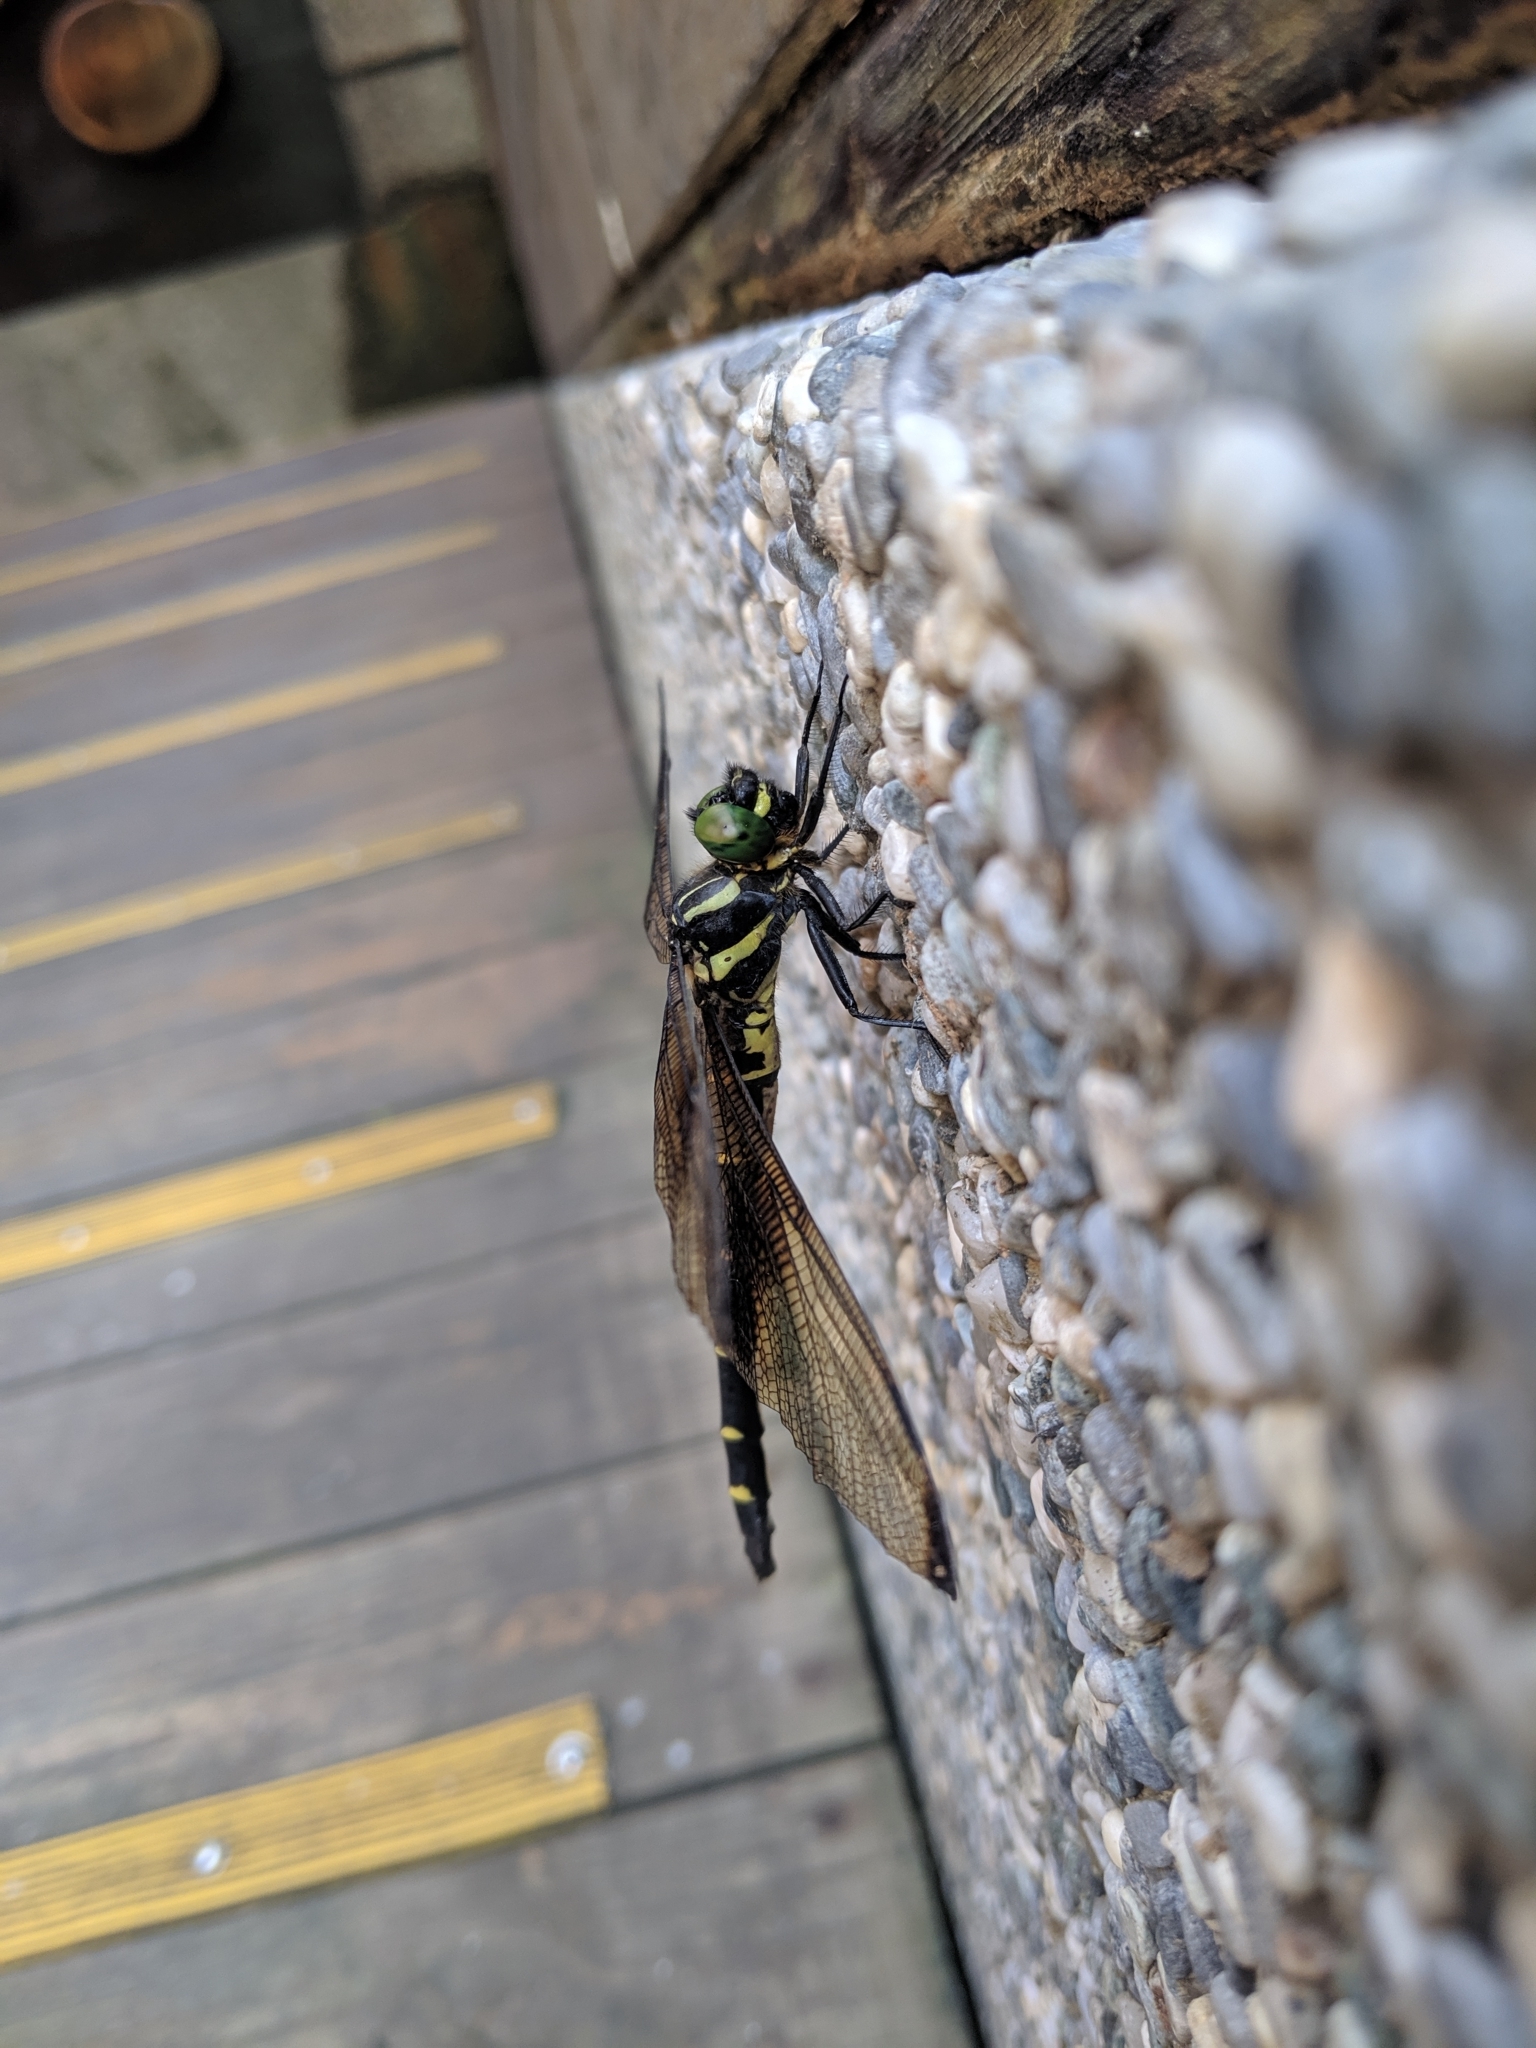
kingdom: Animalia
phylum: Arthropoda
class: Insecta
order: Odonata
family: Chlorogomphidae
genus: Chlorogomphus
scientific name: Chlorogomphus risi
